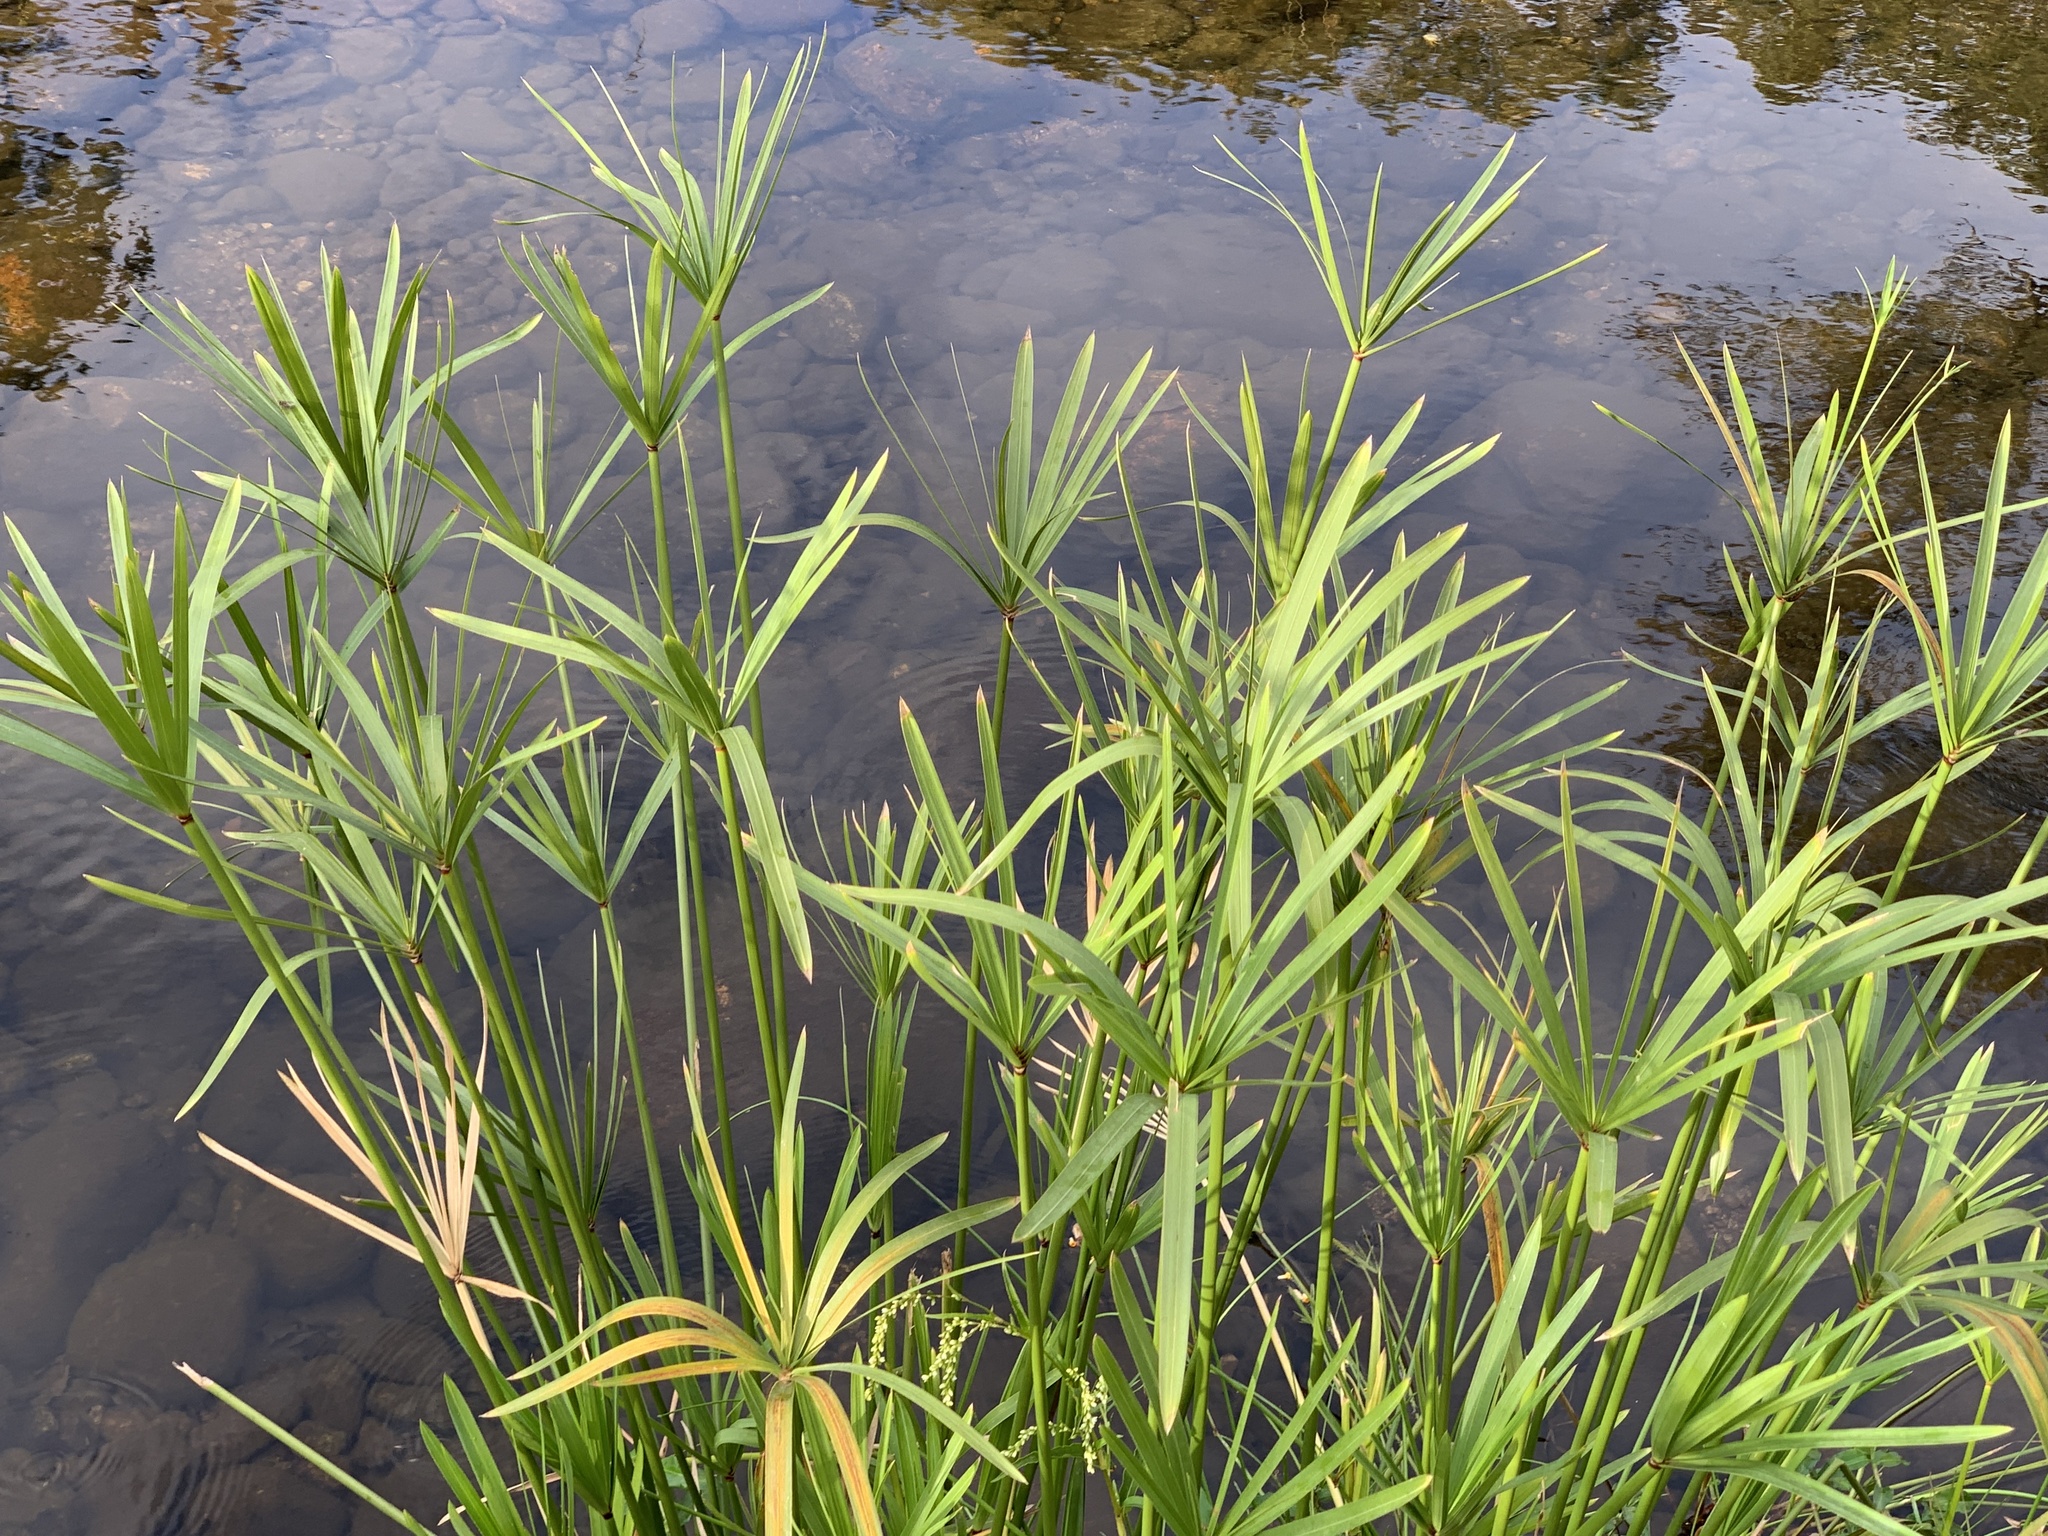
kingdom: Plantae
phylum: Tracheophyta
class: Liliopsida
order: Poales
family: Cyperaceae
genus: Cyperus
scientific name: Cyperus textilis
